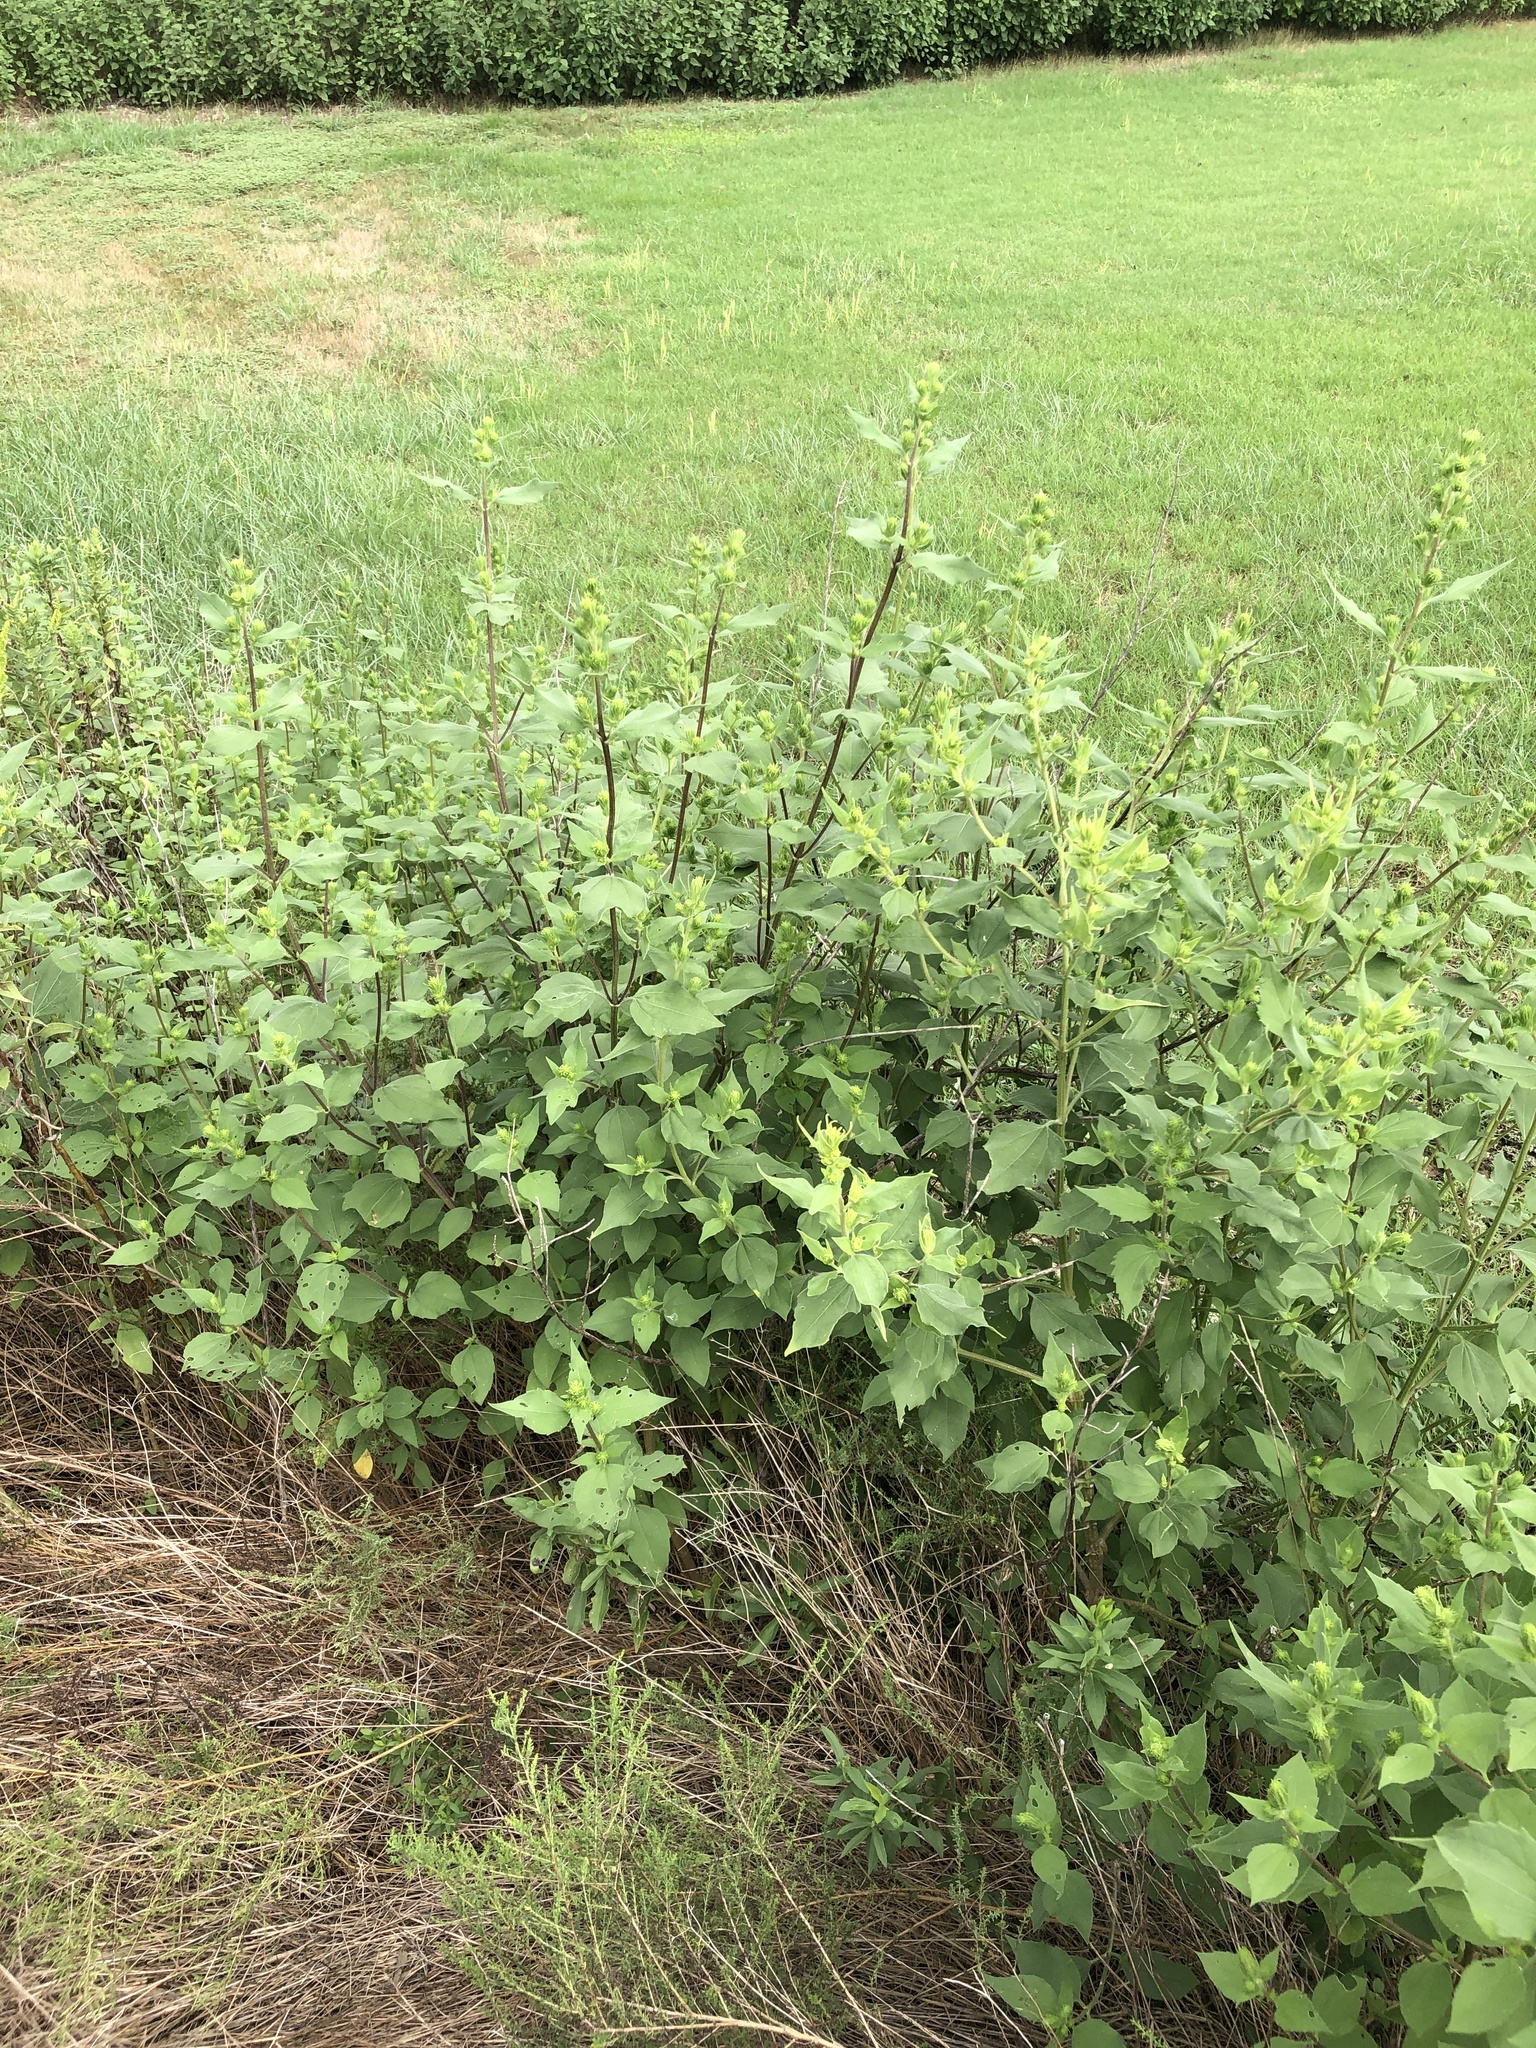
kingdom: Plantae
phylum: Tracheophyta
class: Magnoliopsida
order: Asterales
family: Asteraceae
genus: Iva
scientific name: Iva annua
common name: Marsh-elder
